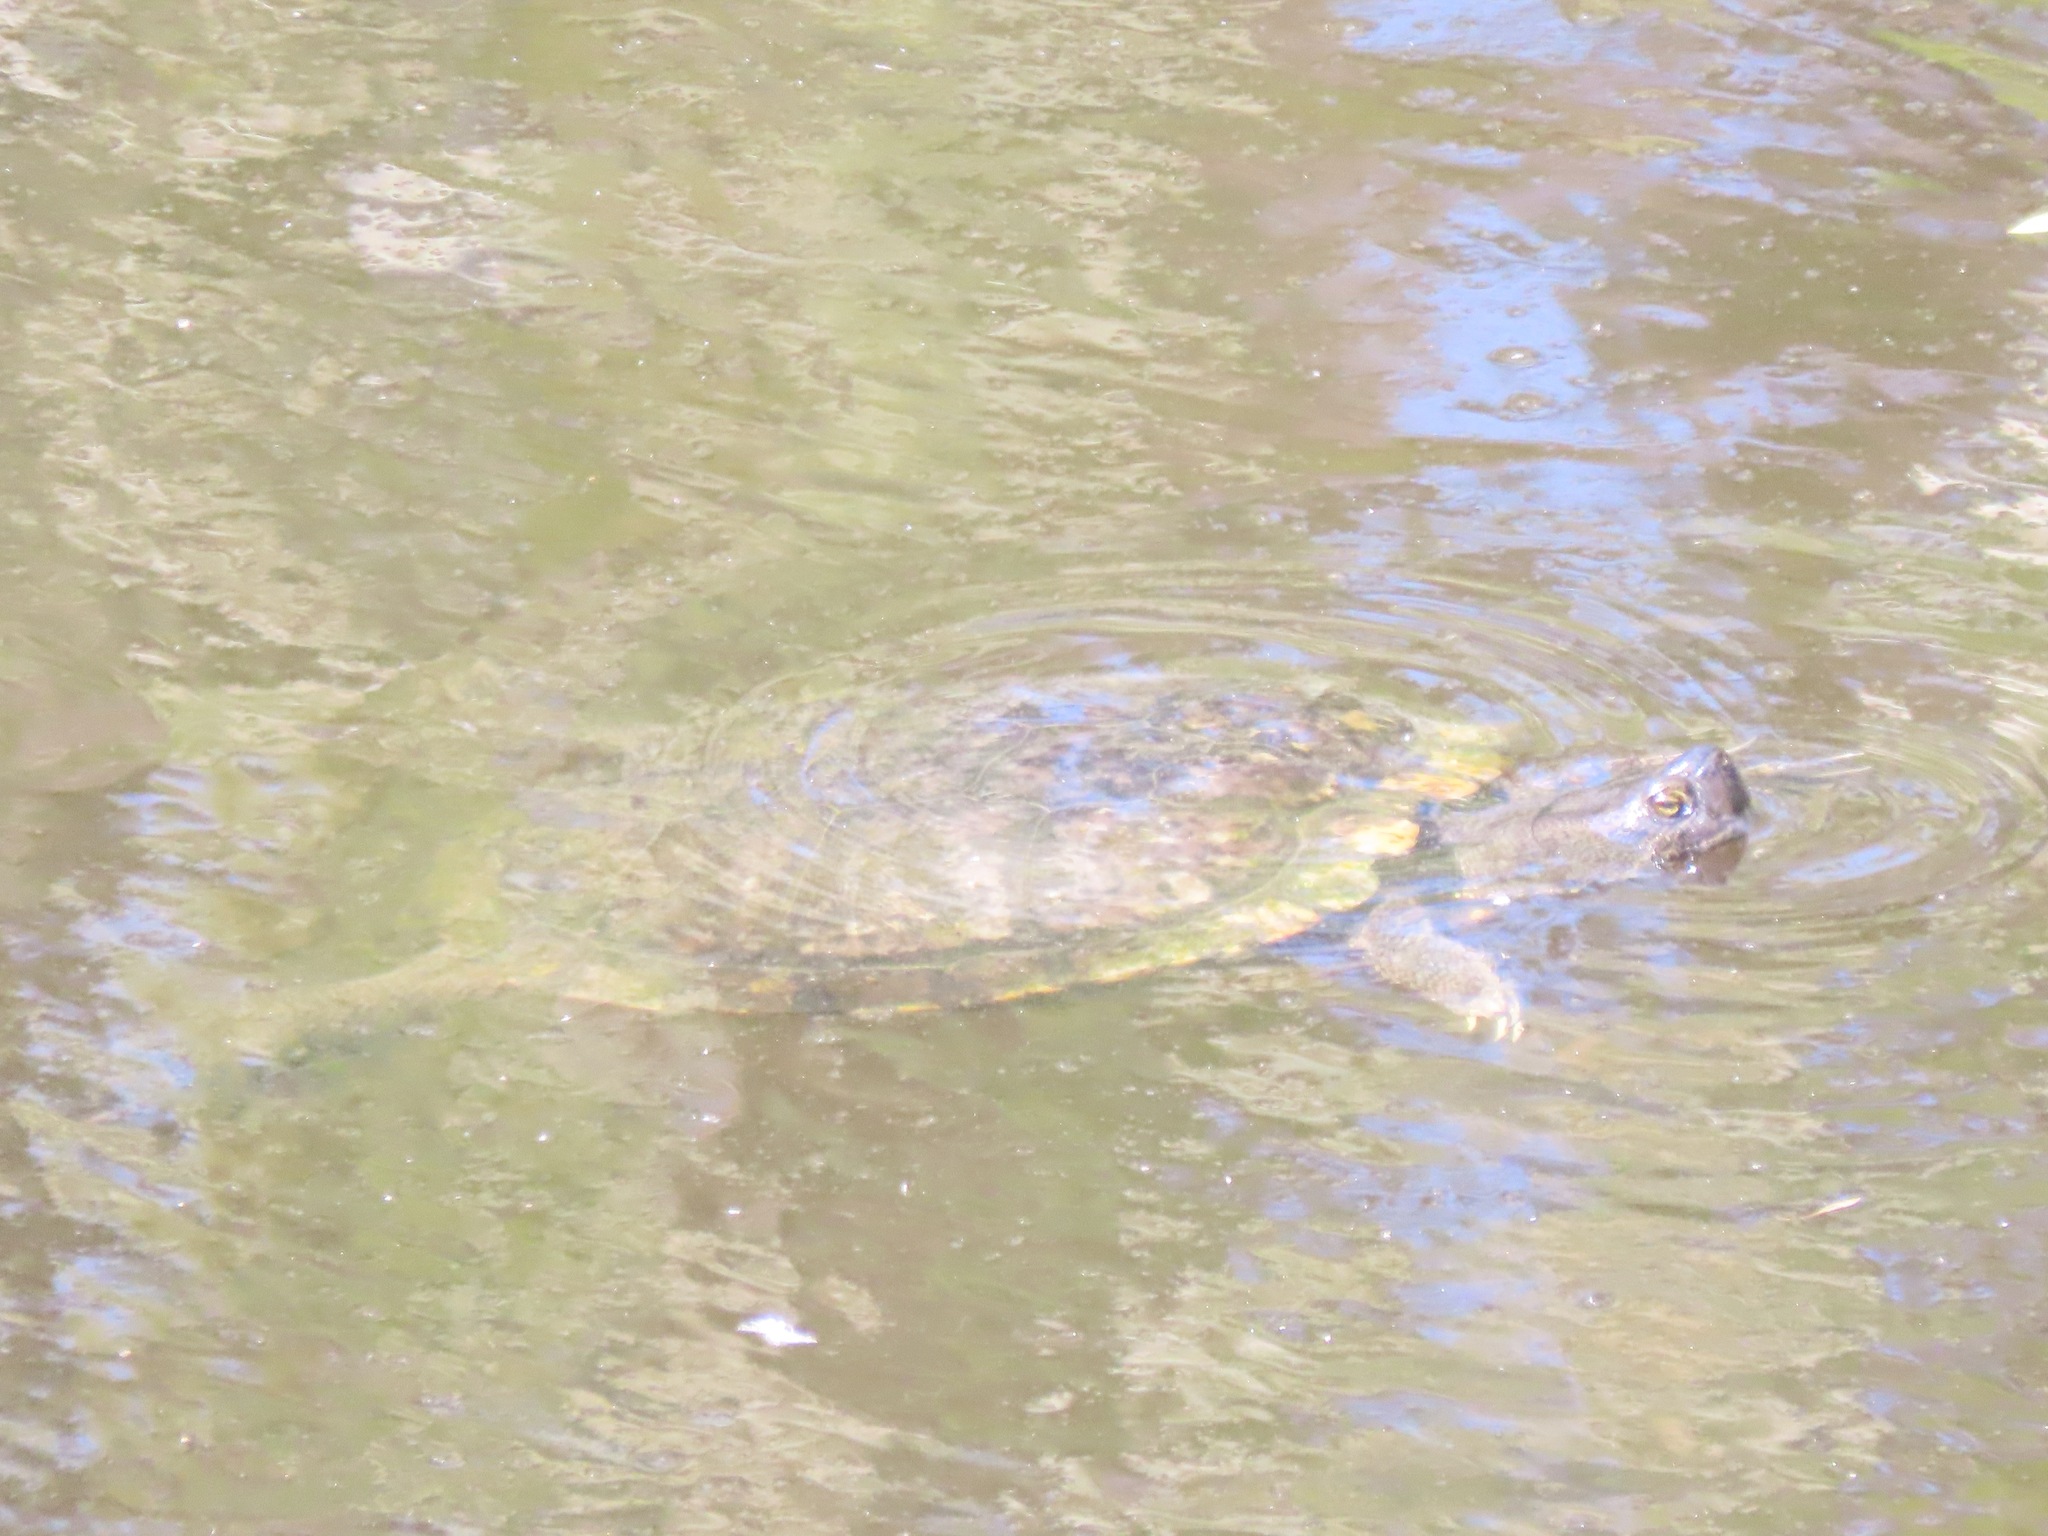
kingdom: Animalia
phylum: Chordata
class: Testudines
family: Emydidae
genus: Trachemys
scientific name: Trachemys scripta
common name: Slider
